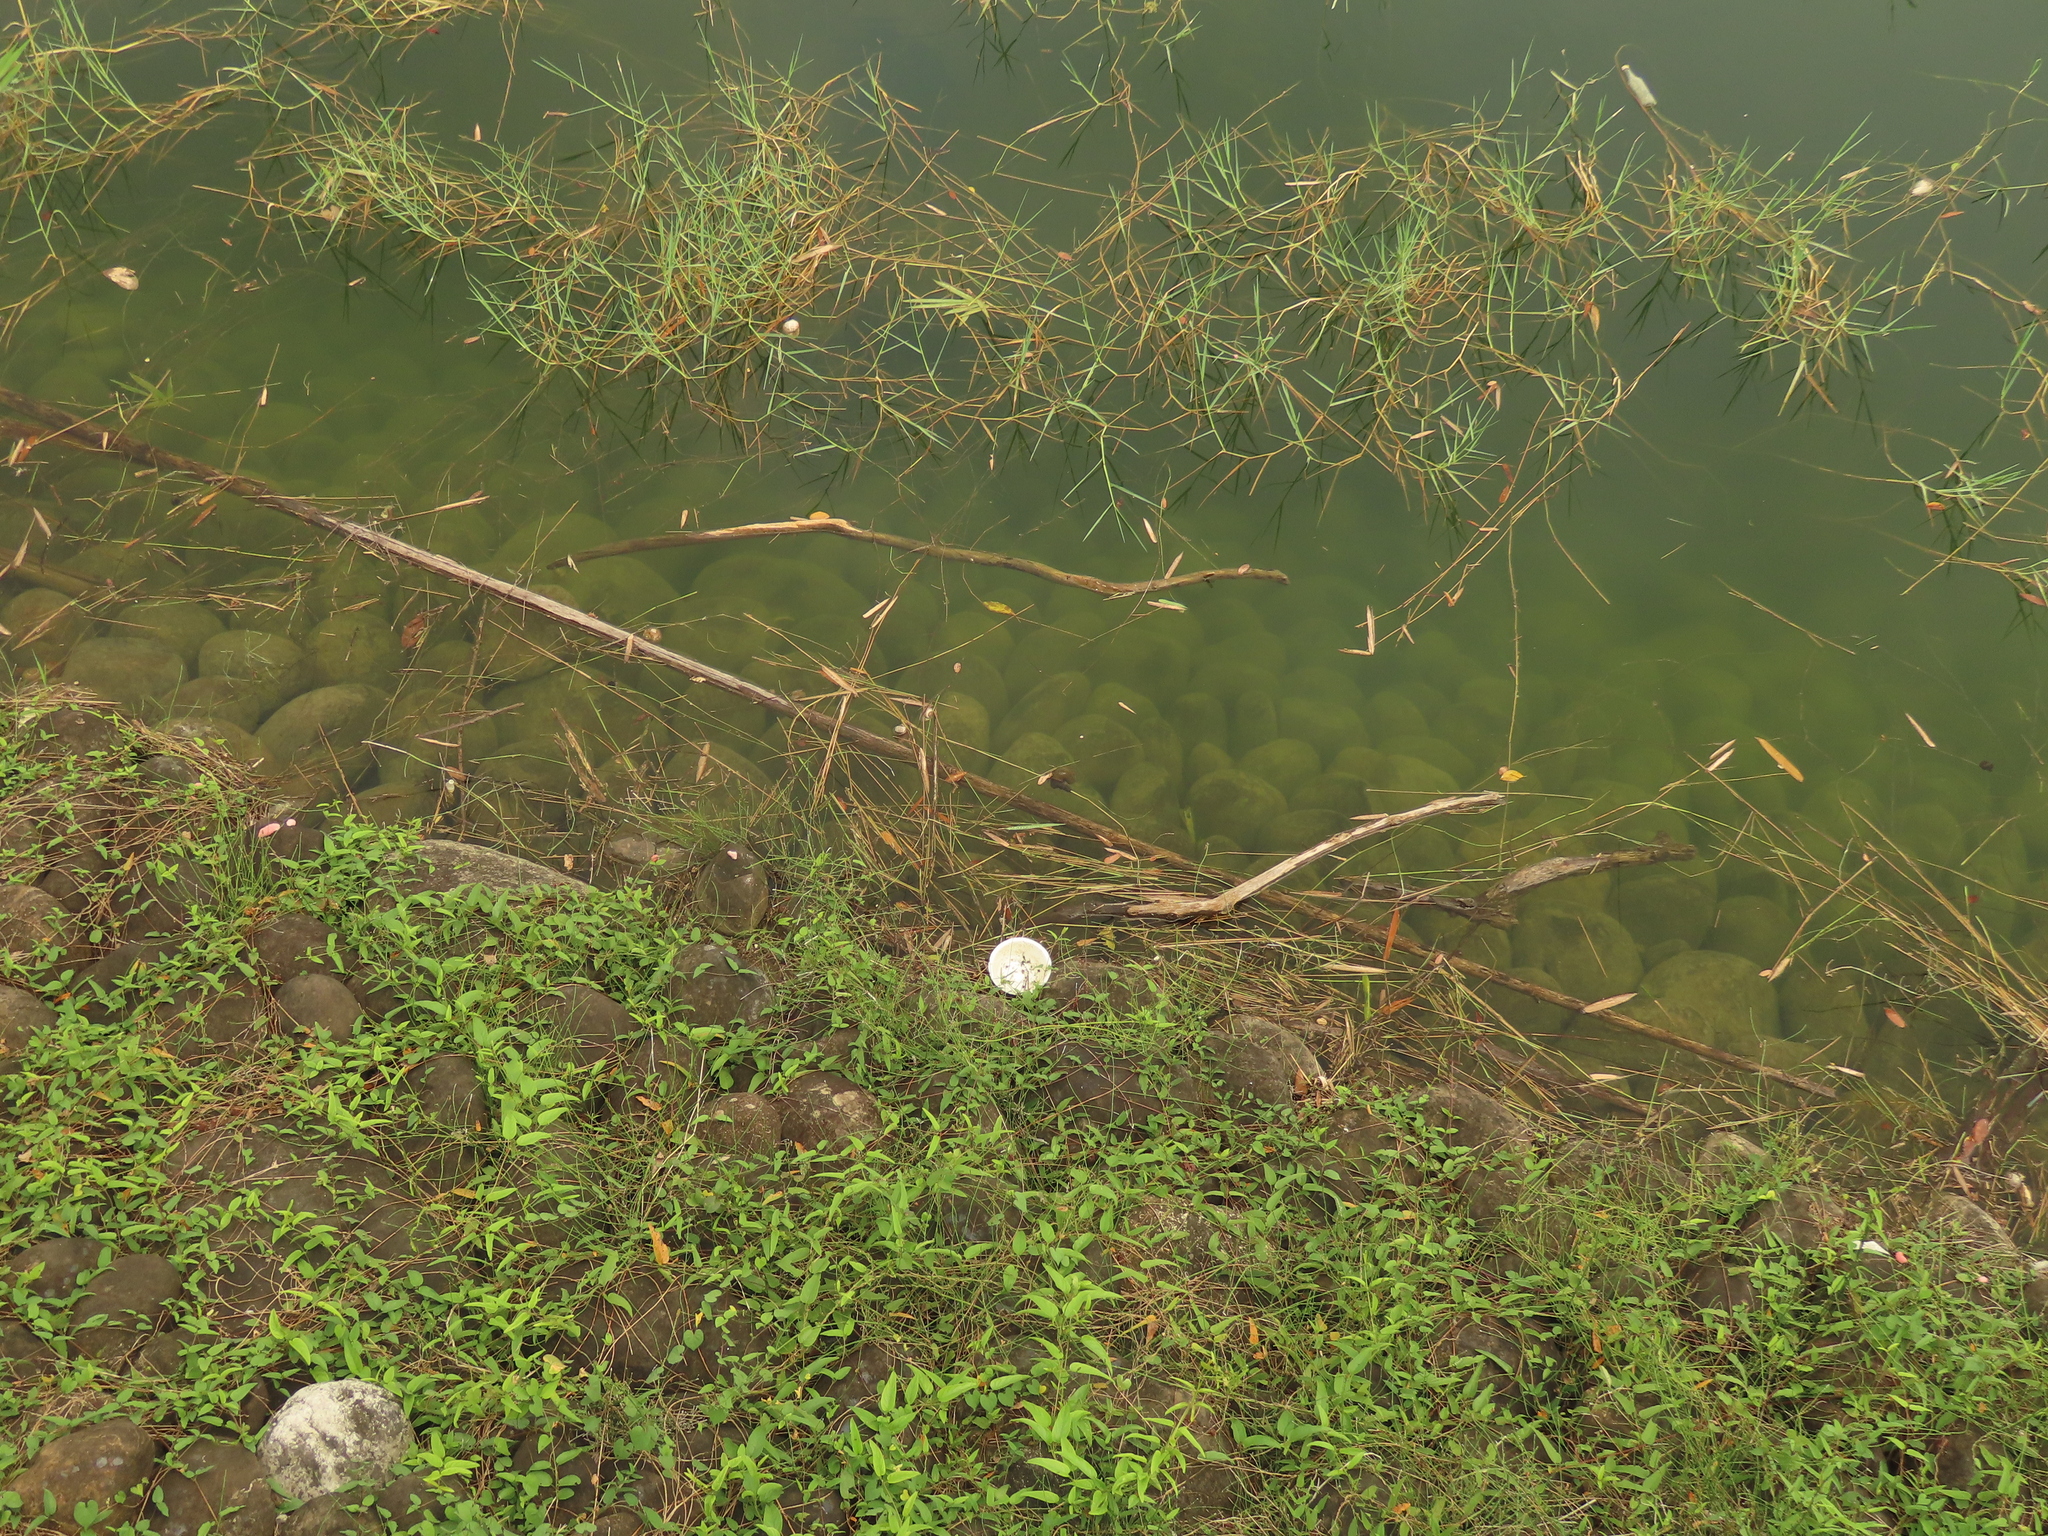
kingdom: Animalia
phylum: Mollusca
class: Gastropoda
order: Architaenioglossa
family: Ampullariidae
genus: Pomacea
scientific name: Pomacea canaliculata
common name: Channeled applesnail
